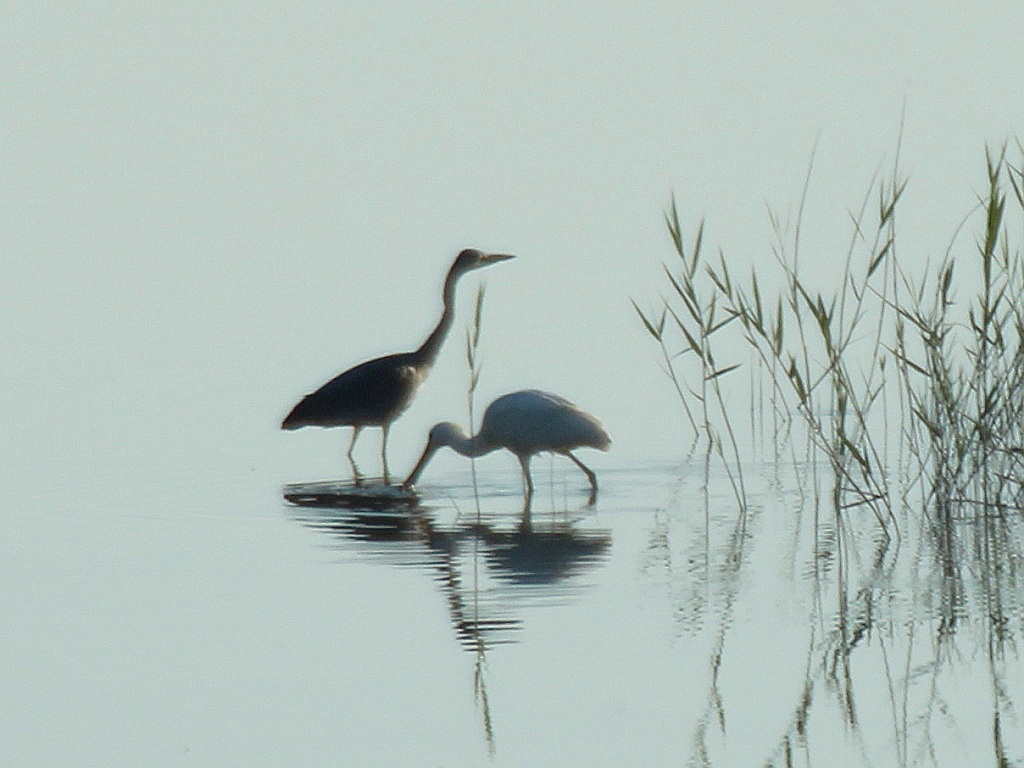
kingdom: Animalia
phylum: Chordata
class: Aves
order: Pelecaniformes
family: Threskiornithidae
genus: Platalea
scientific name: Platalea leucorodia
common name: Eurasian spoonbill
